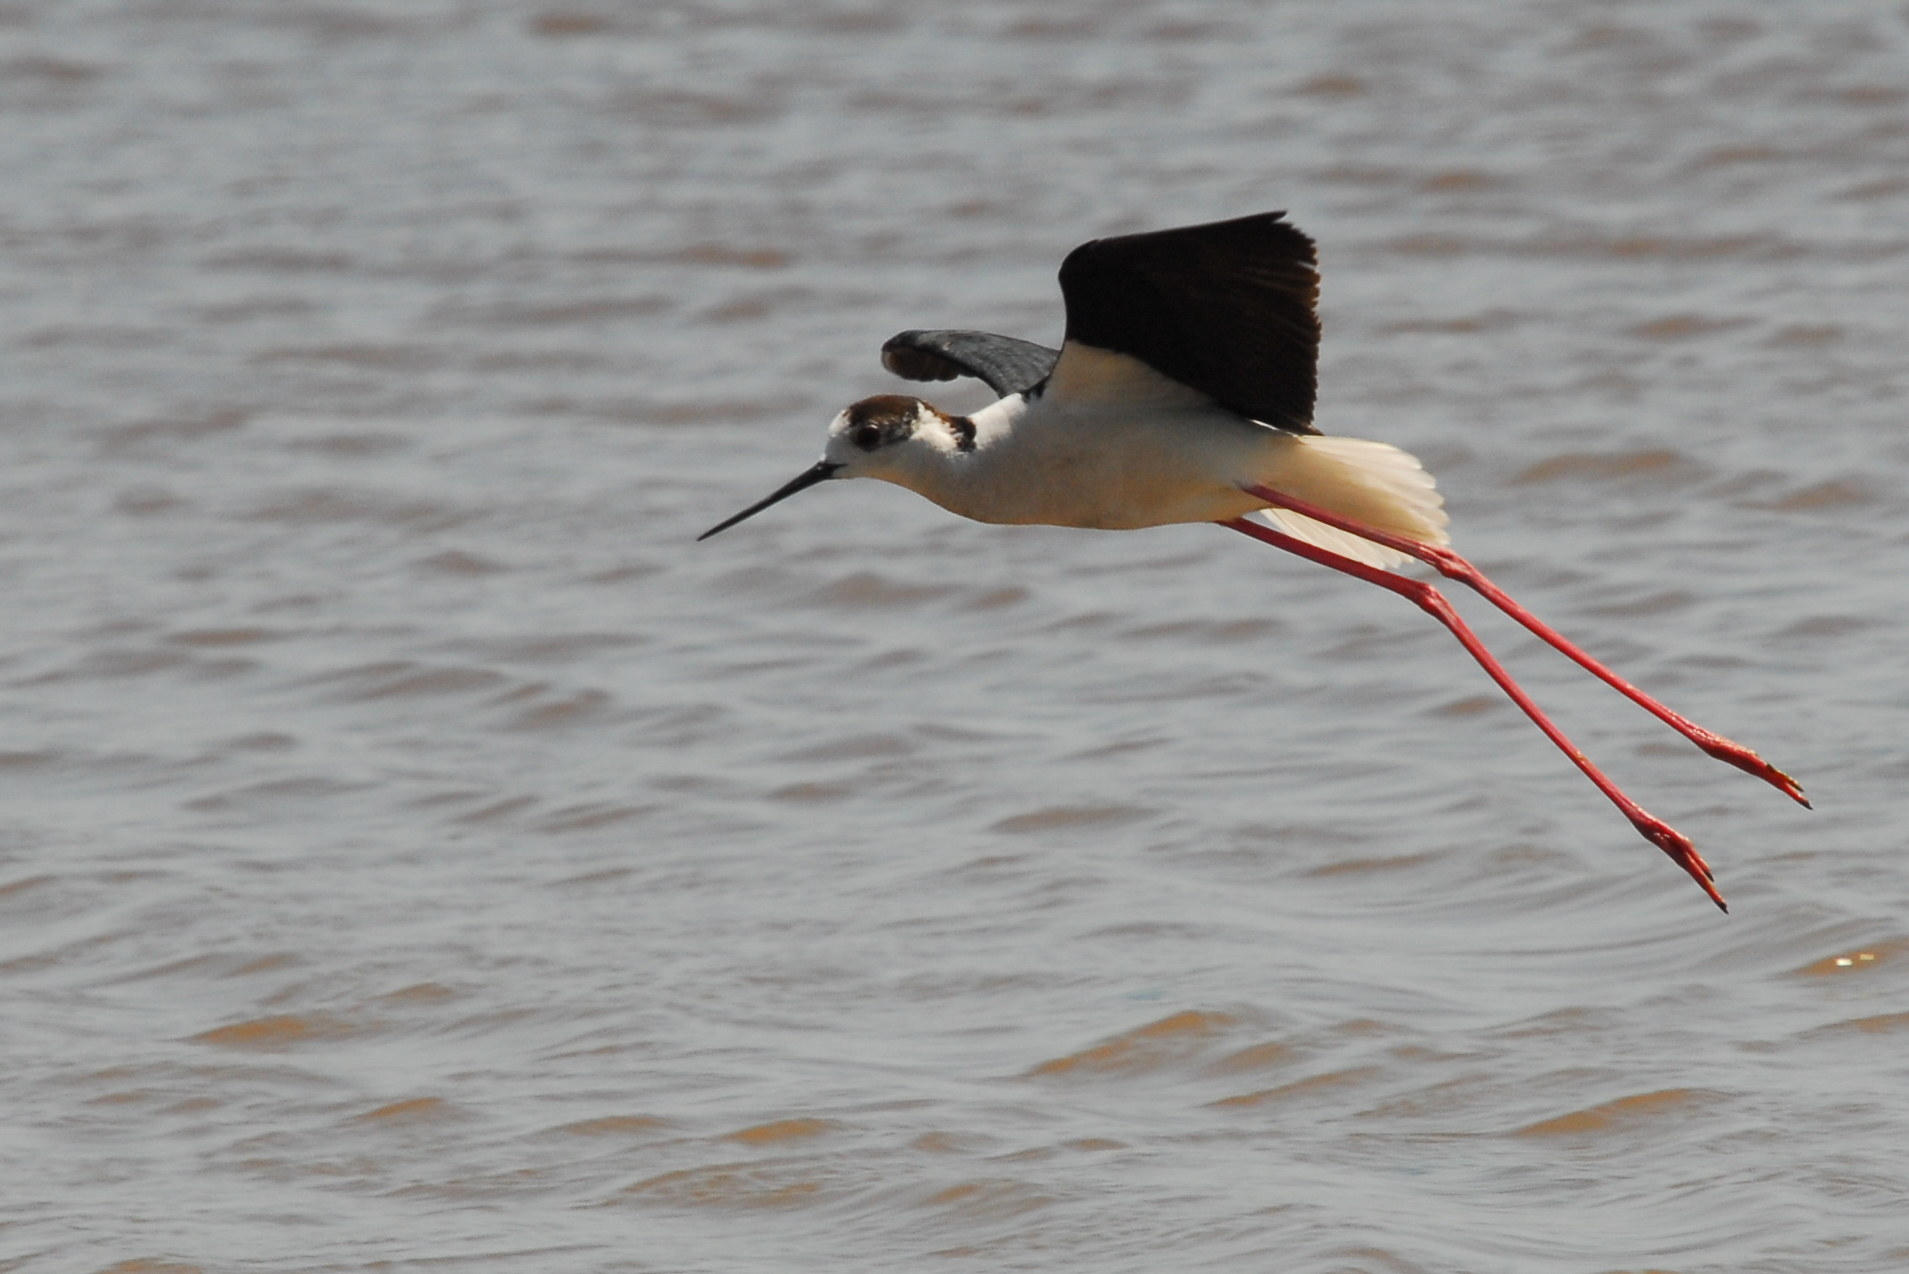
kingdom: Animalia
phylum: Chordata
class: Aves
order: Charadriiformes
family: Recurvirostridae
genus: Himantopus
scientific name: Himantopus himantopus
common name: Black-winged stilt
